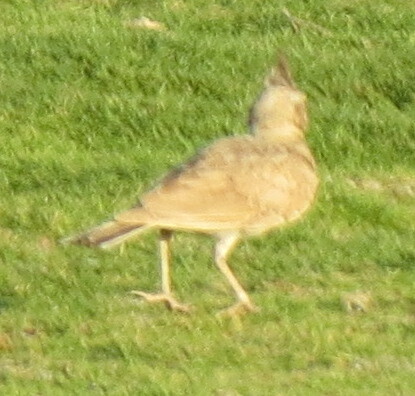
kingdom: Animalia
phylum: Chordata
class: Aves
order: Passeriformes
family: Alaudidae
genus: Galerida
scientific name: Galerida cristata
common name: Crested lark
